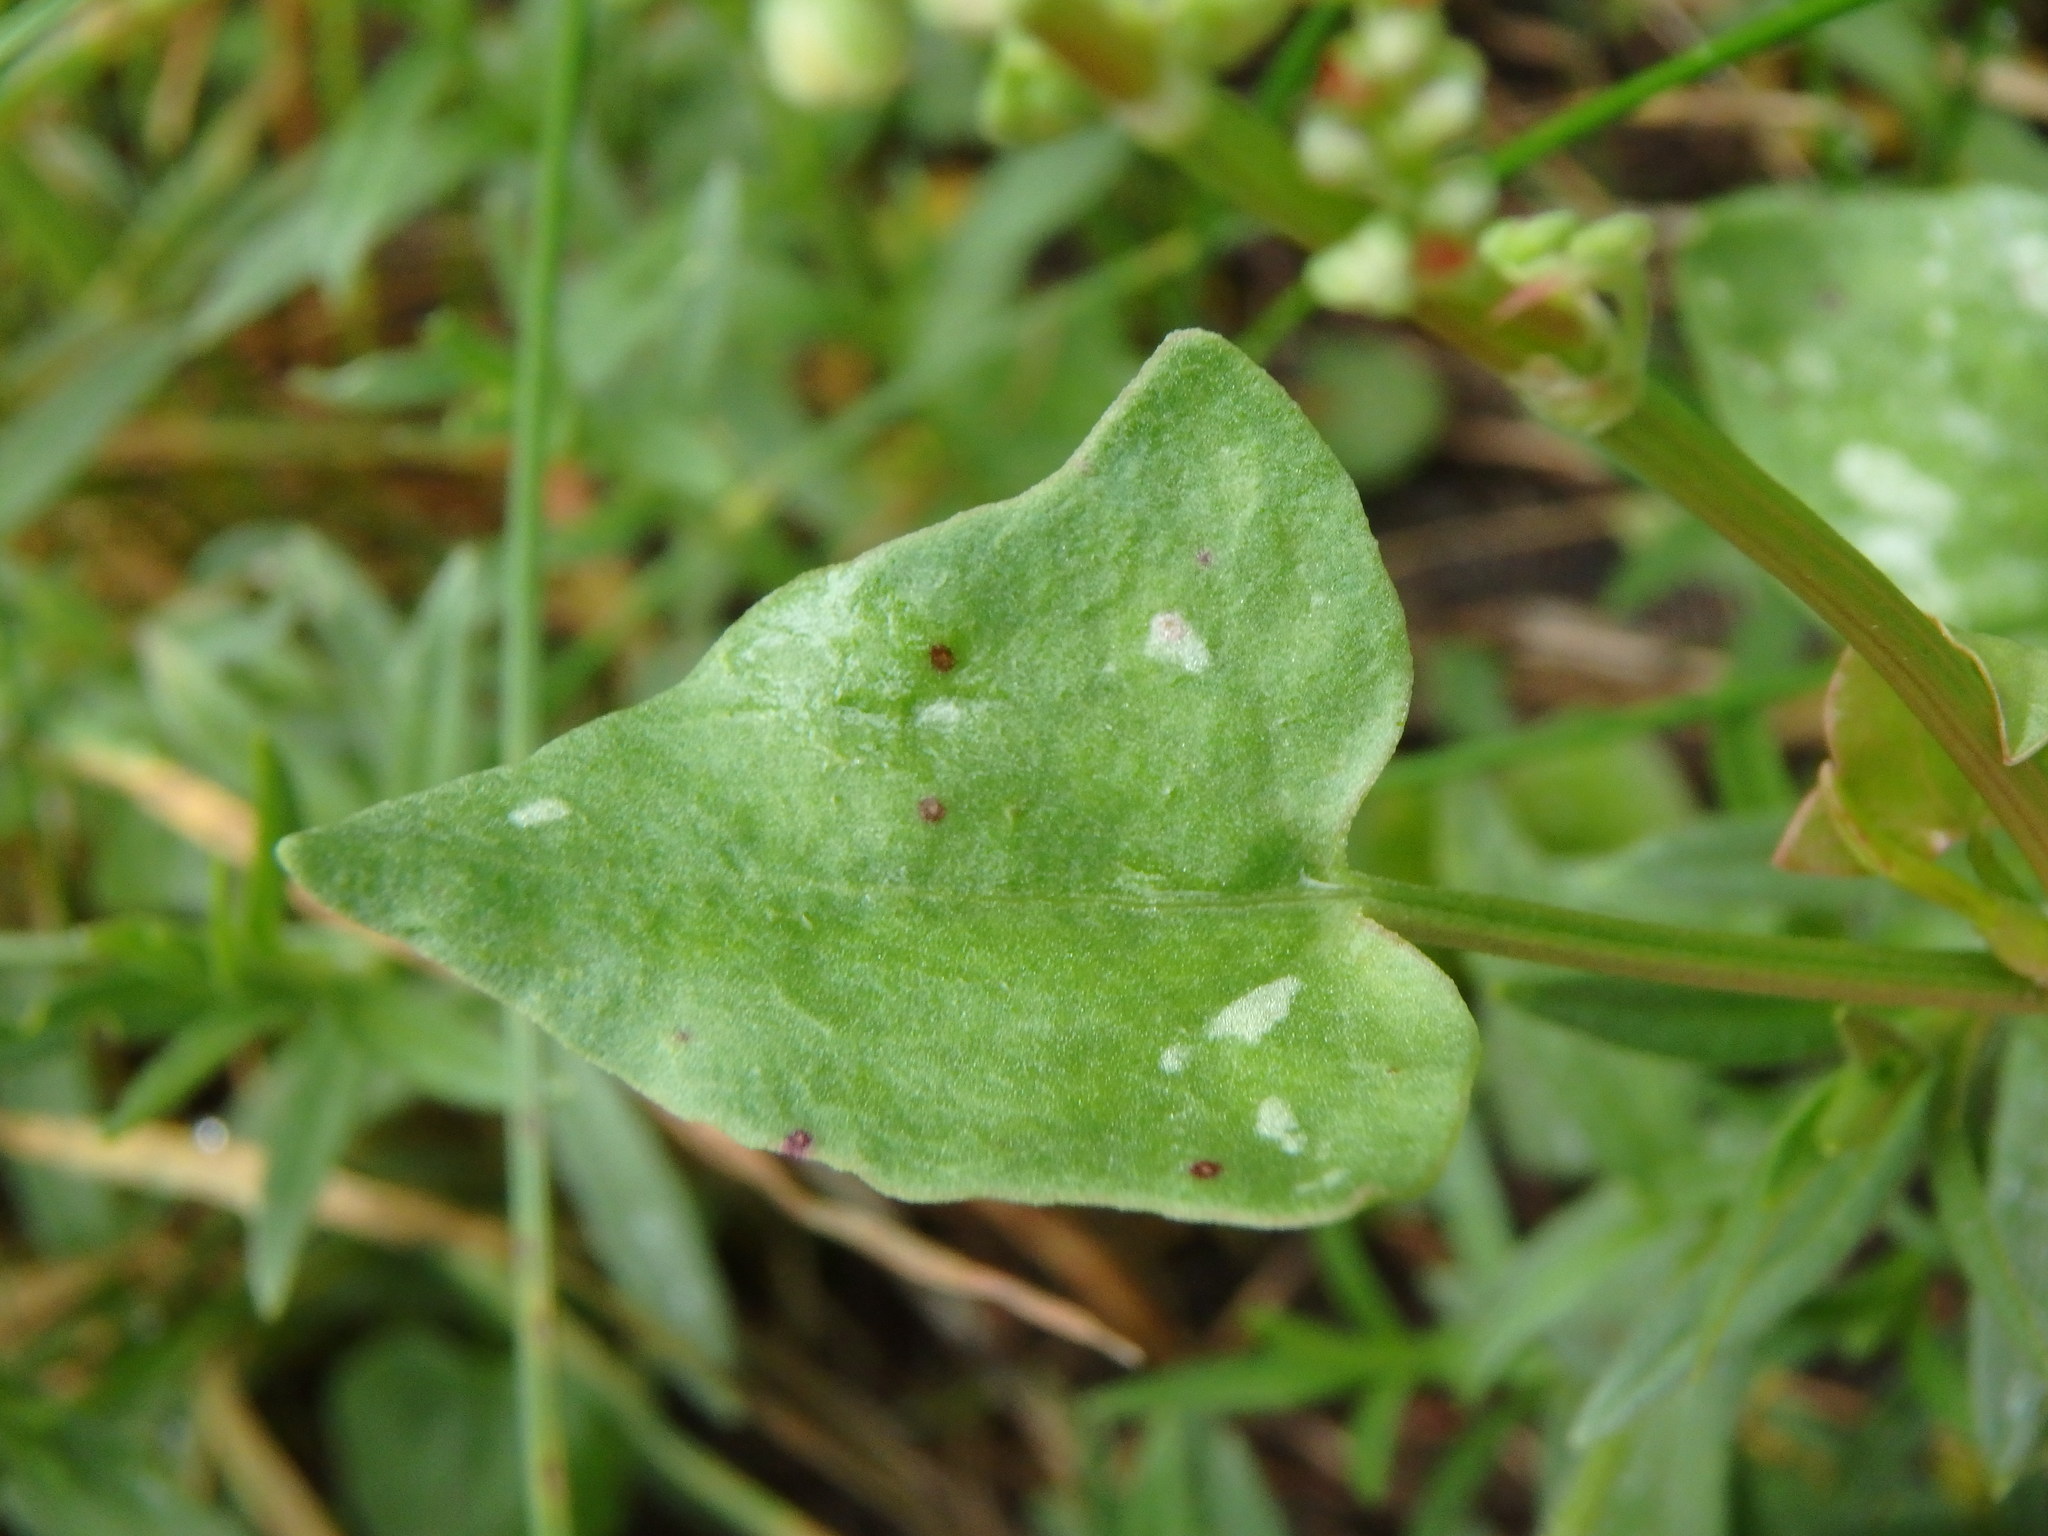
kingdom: Plantae
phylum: Tracheophyta
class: Magnoliopsida
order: Caryophyllales
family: Polygonaceae
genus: Rumex
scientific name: Rumex scutatus
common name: French sorrel
